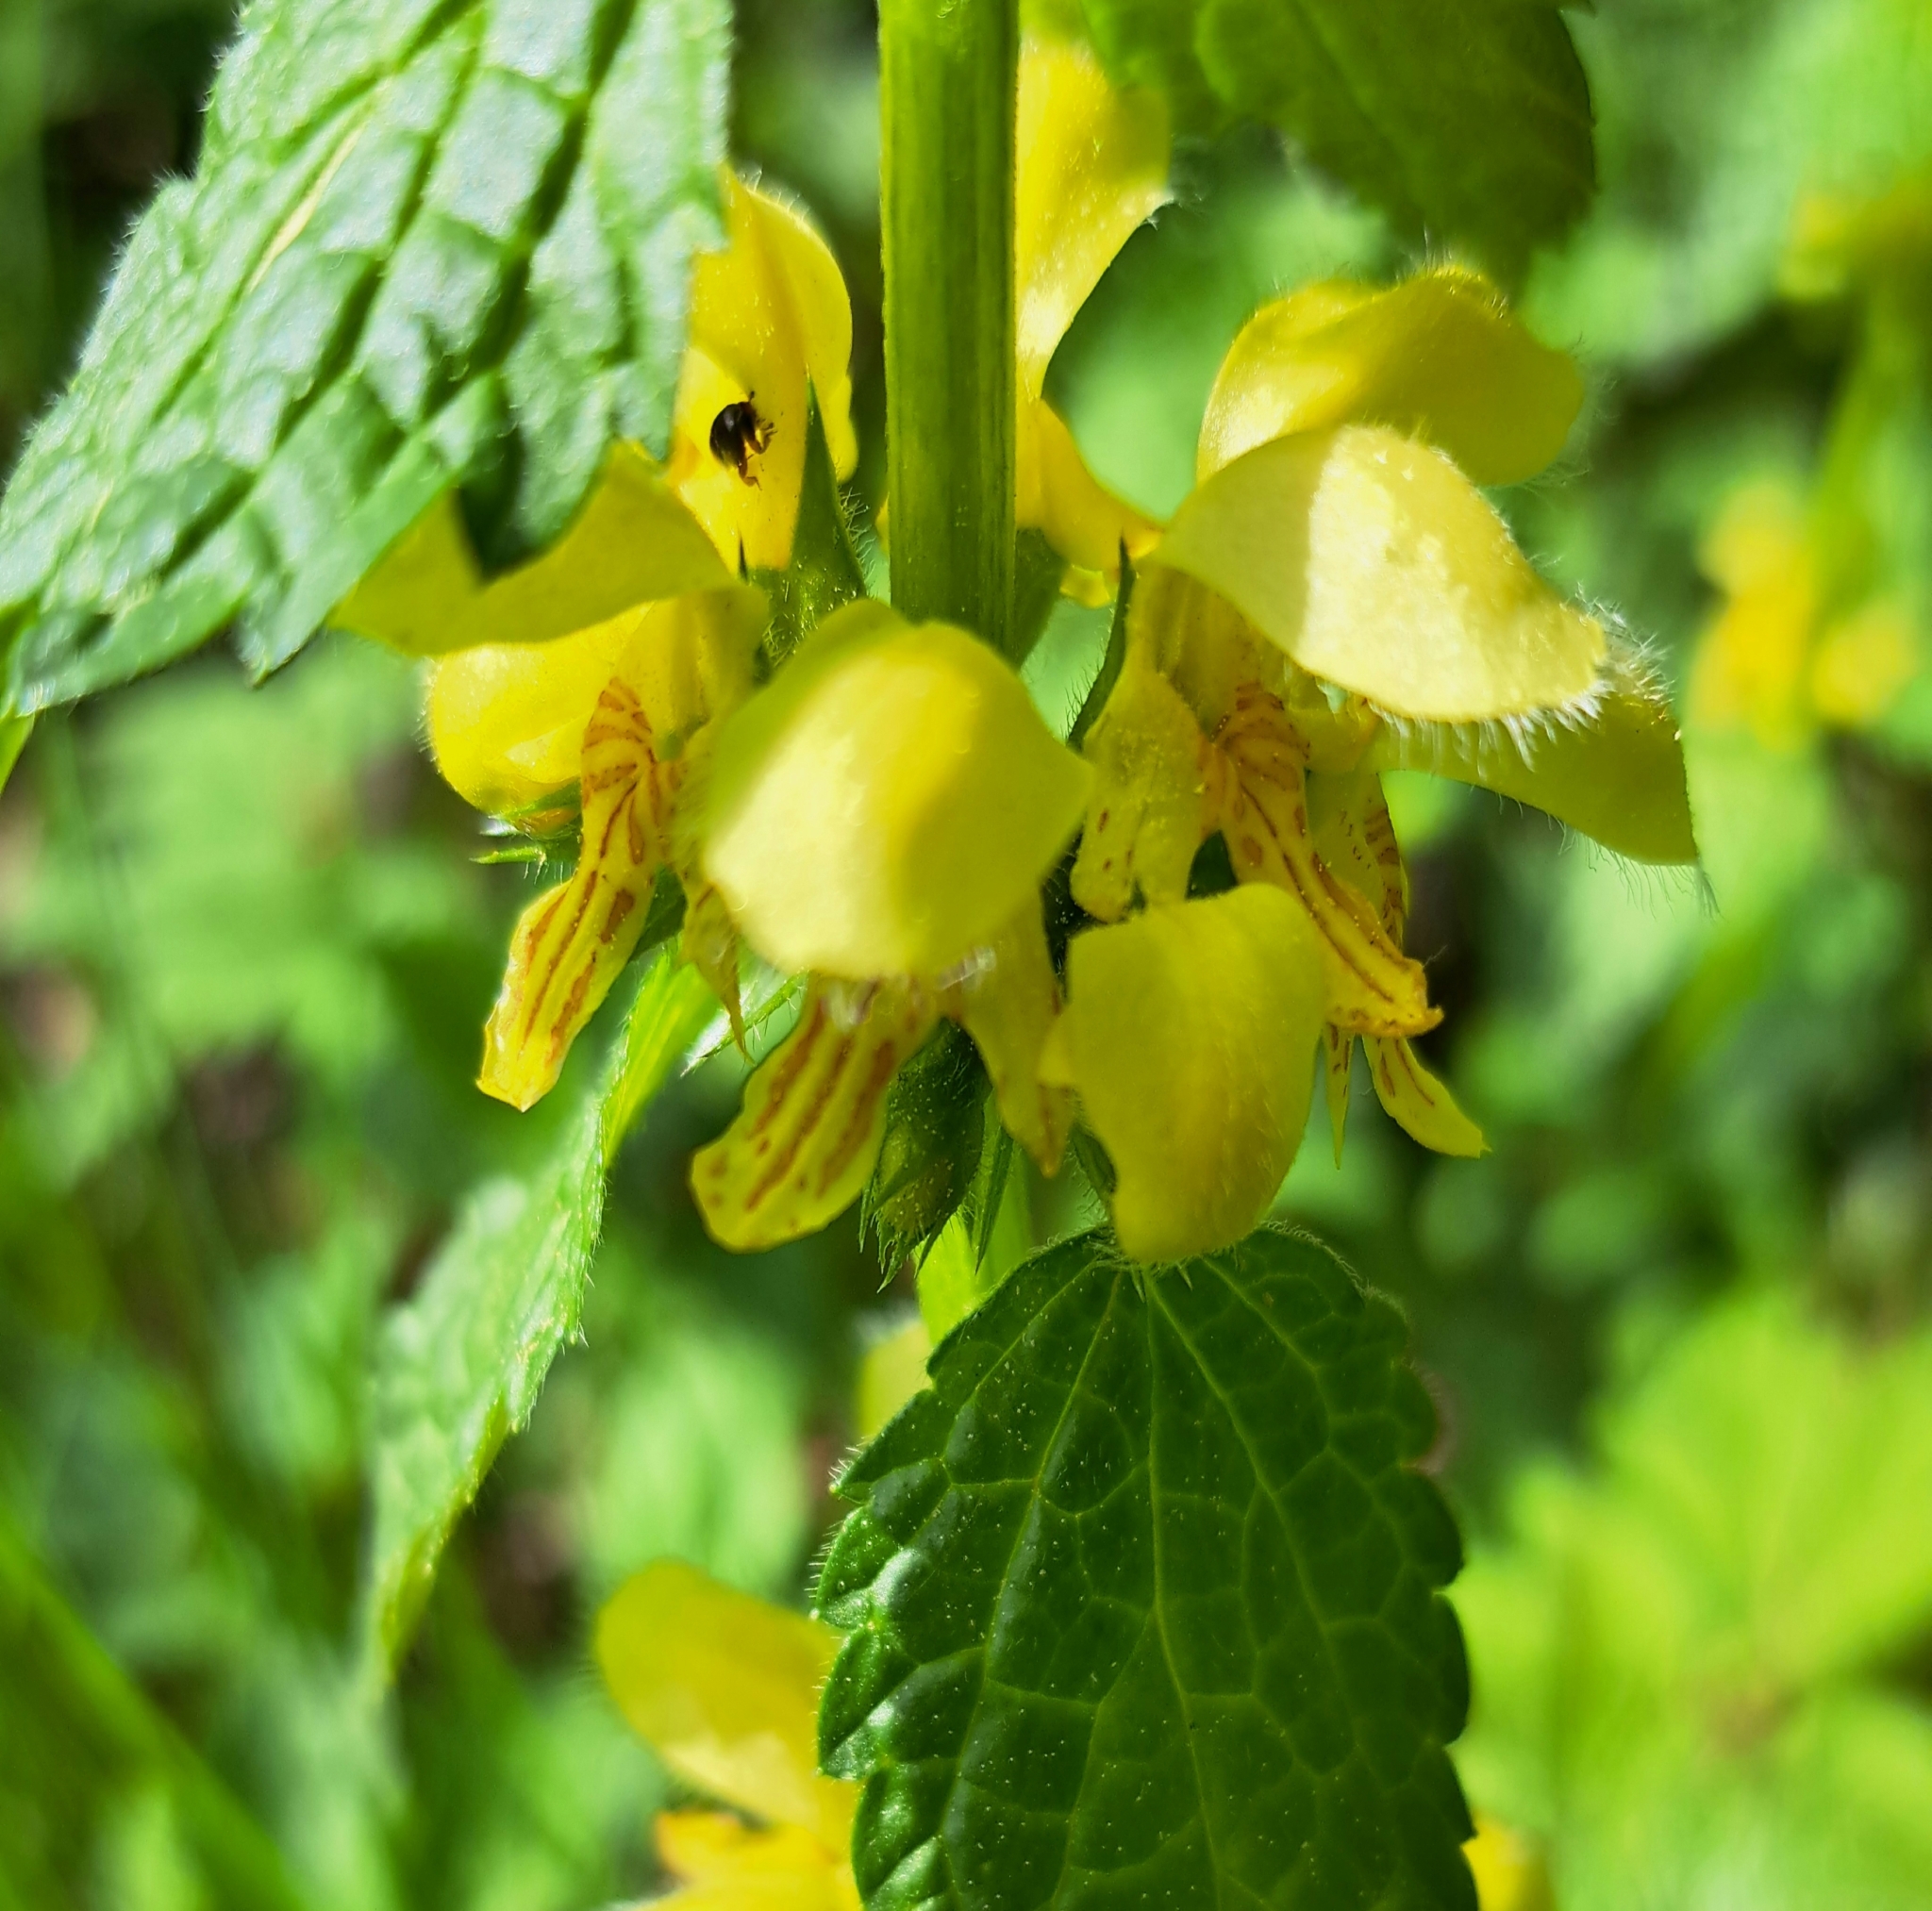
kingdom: Plantae
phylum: Tracheophyta
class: Magnoliopsida
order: Lamiales
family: Lamiaceae
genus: Lamium
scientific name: Lamium galeobdolon
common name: Yellow archangel
